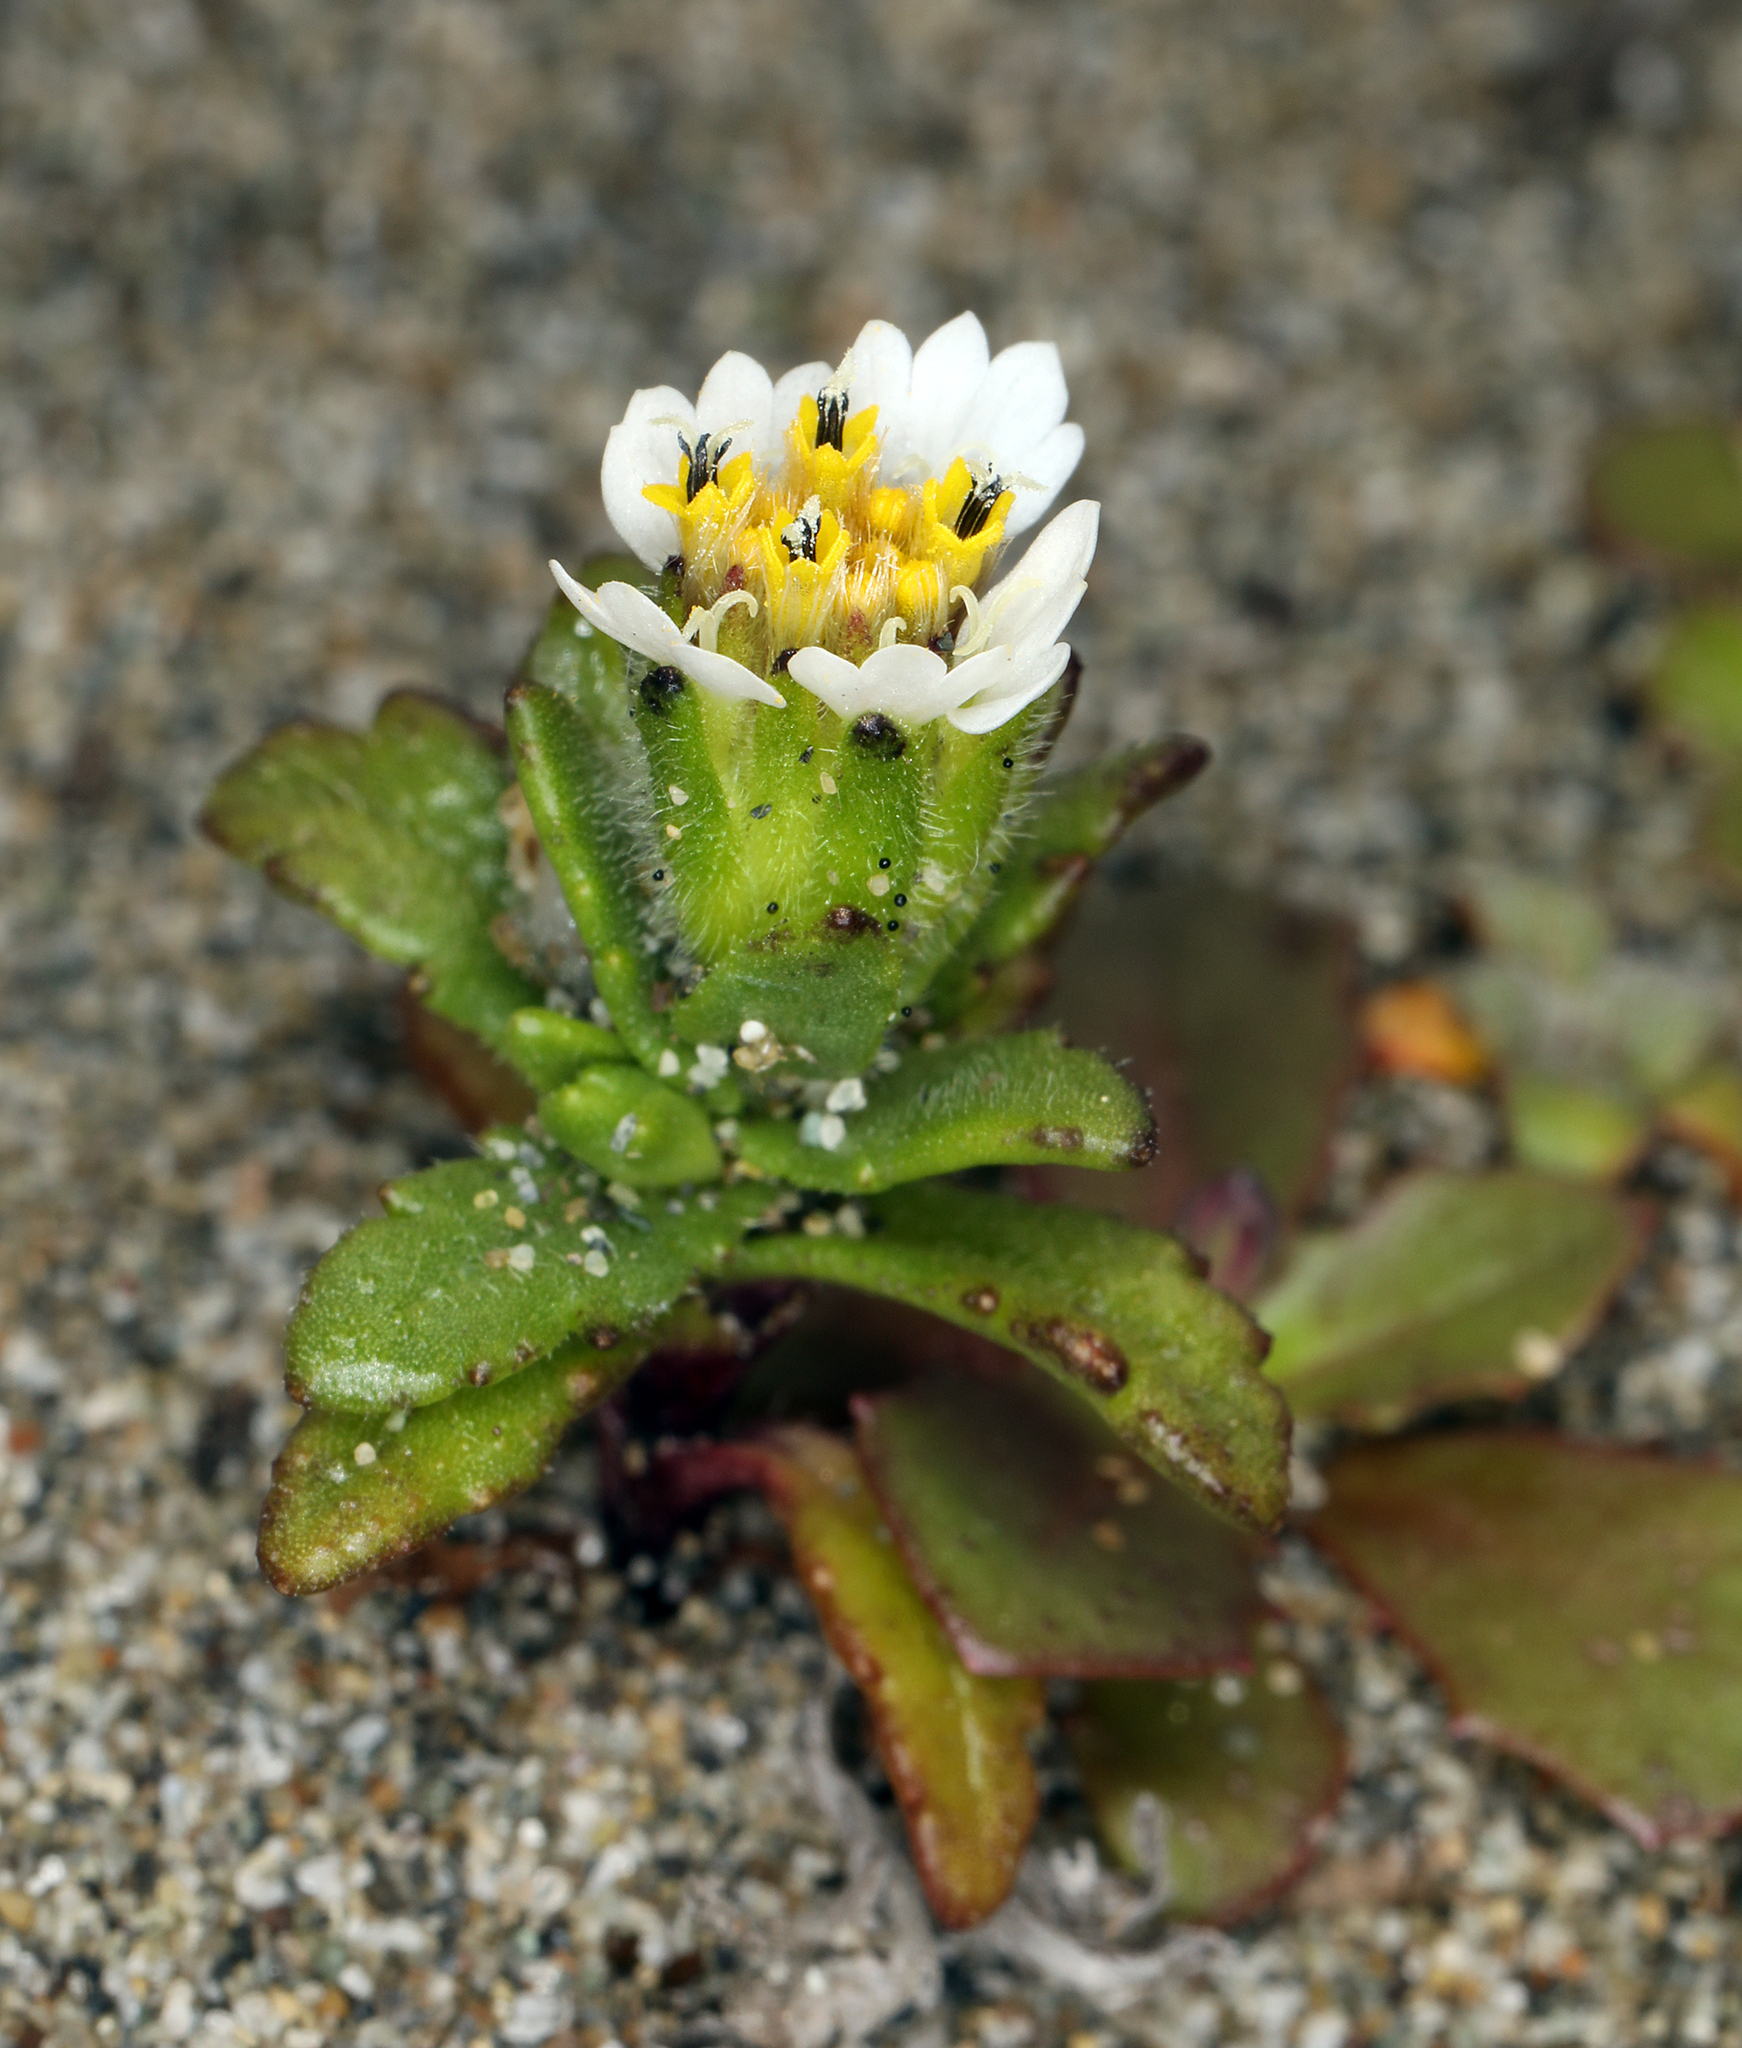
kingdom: Plantae
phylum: Tracheophyta
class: Magnoliopsida
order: Asterales
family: Asteraceae
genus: Layia
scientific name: Layia carnosa
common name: Beach layia
